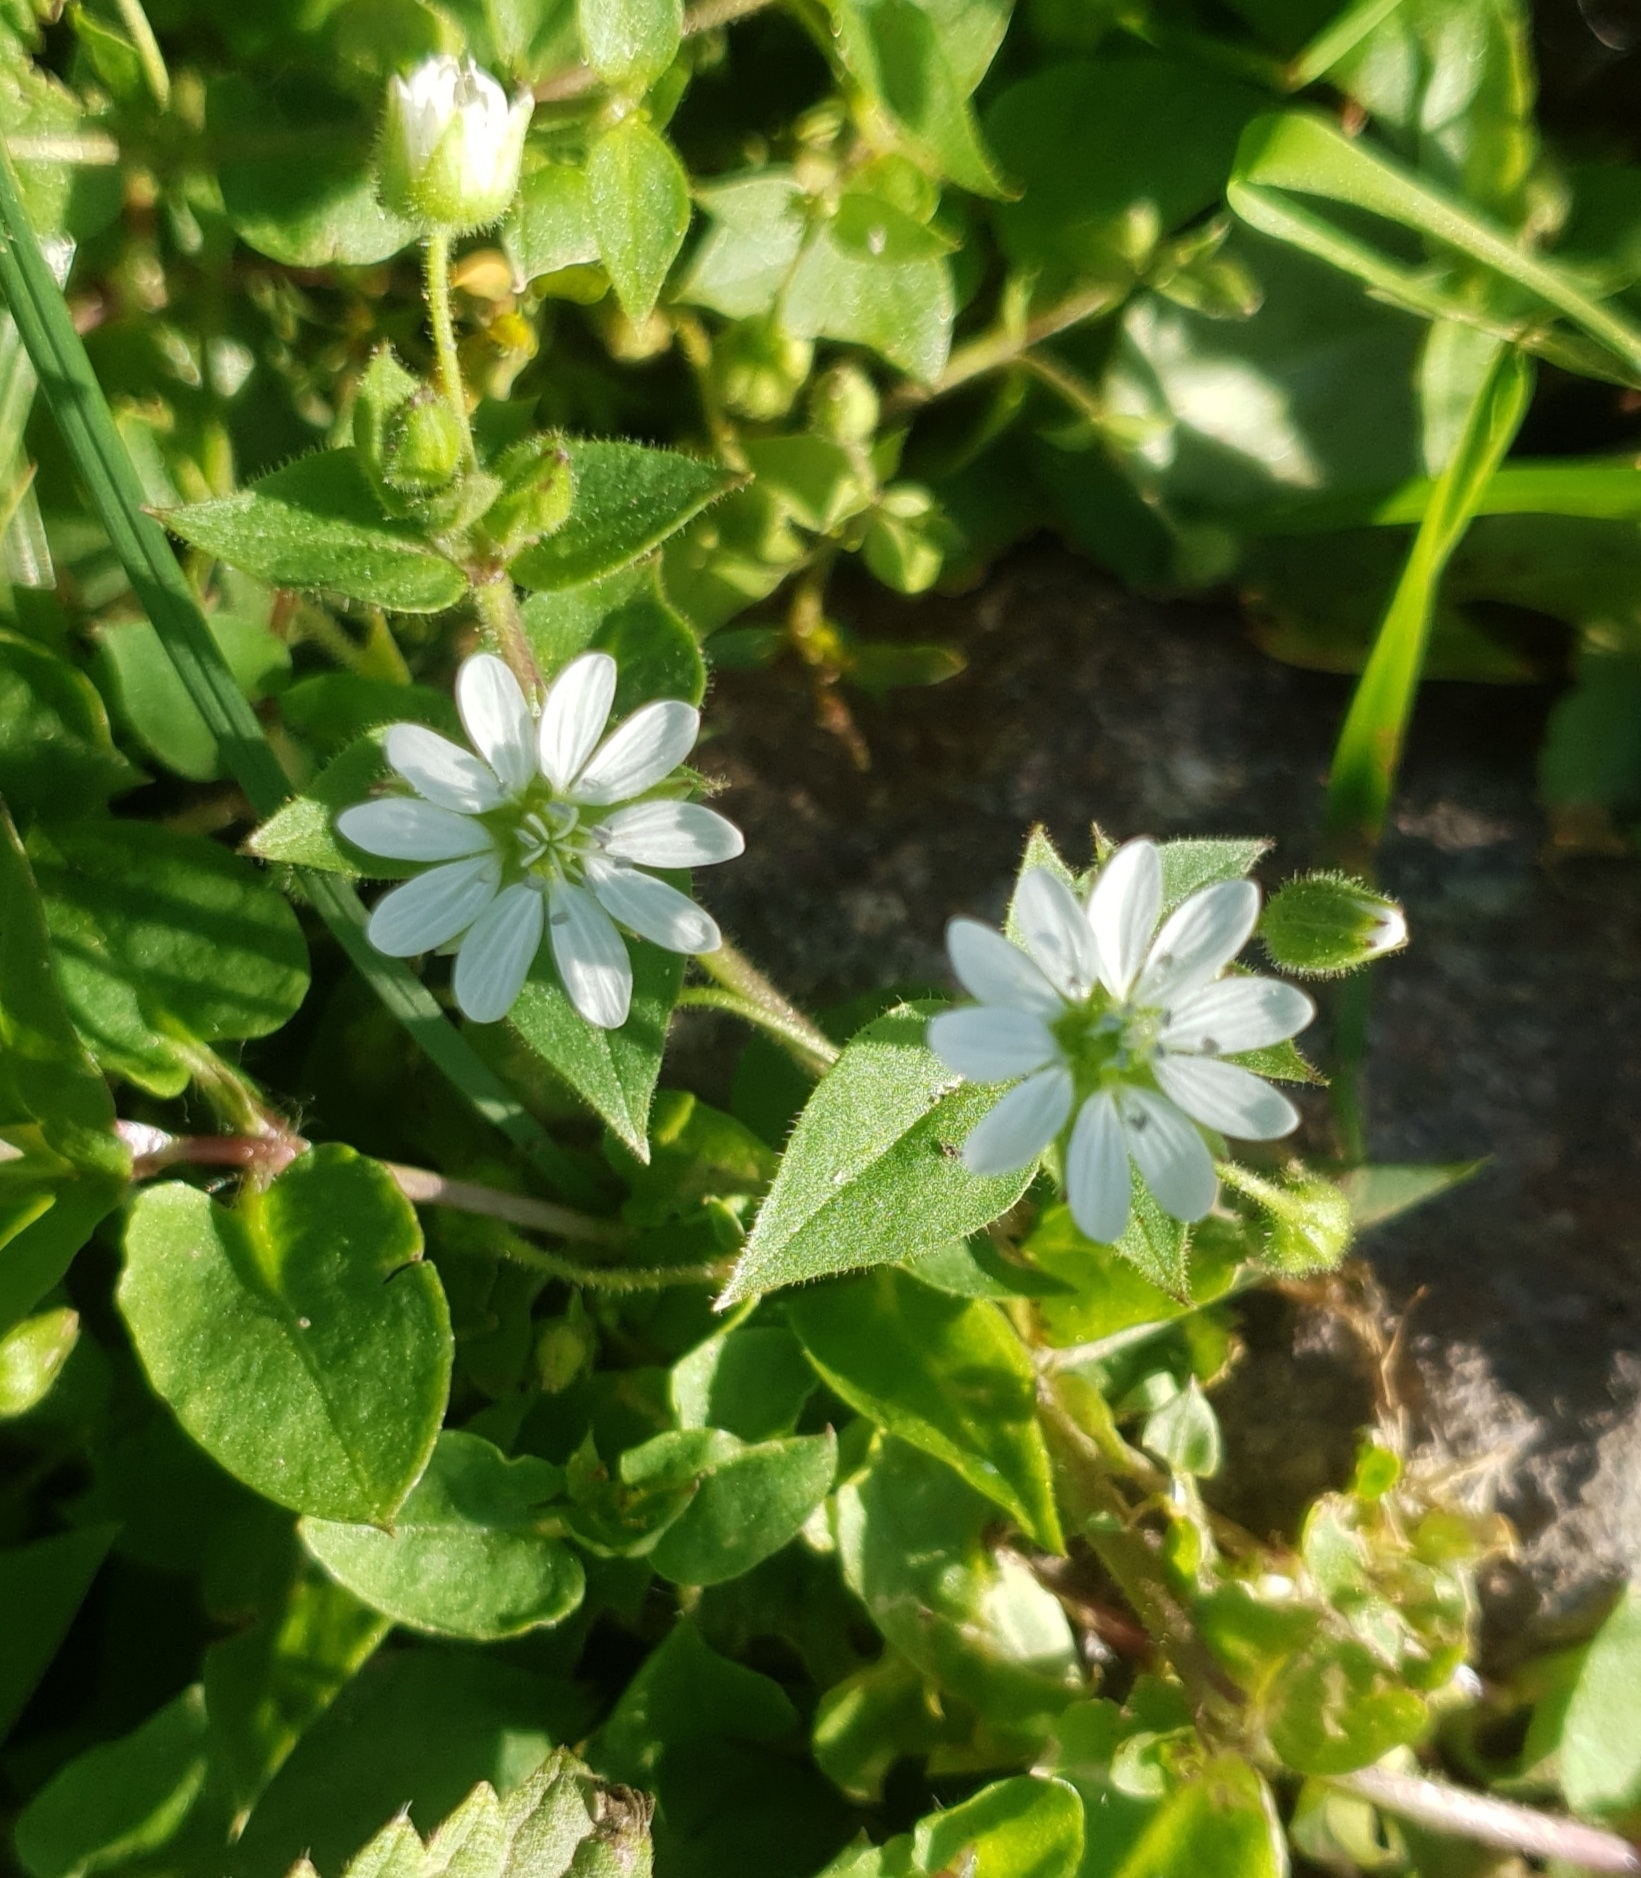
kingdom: Plantae
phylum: Tracheophyta
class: Magnoliopsida
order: Caryophyllales
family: Caryophyllaceae
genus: Stellaria
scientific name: Stellaria aquatica
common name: Water chickweed
